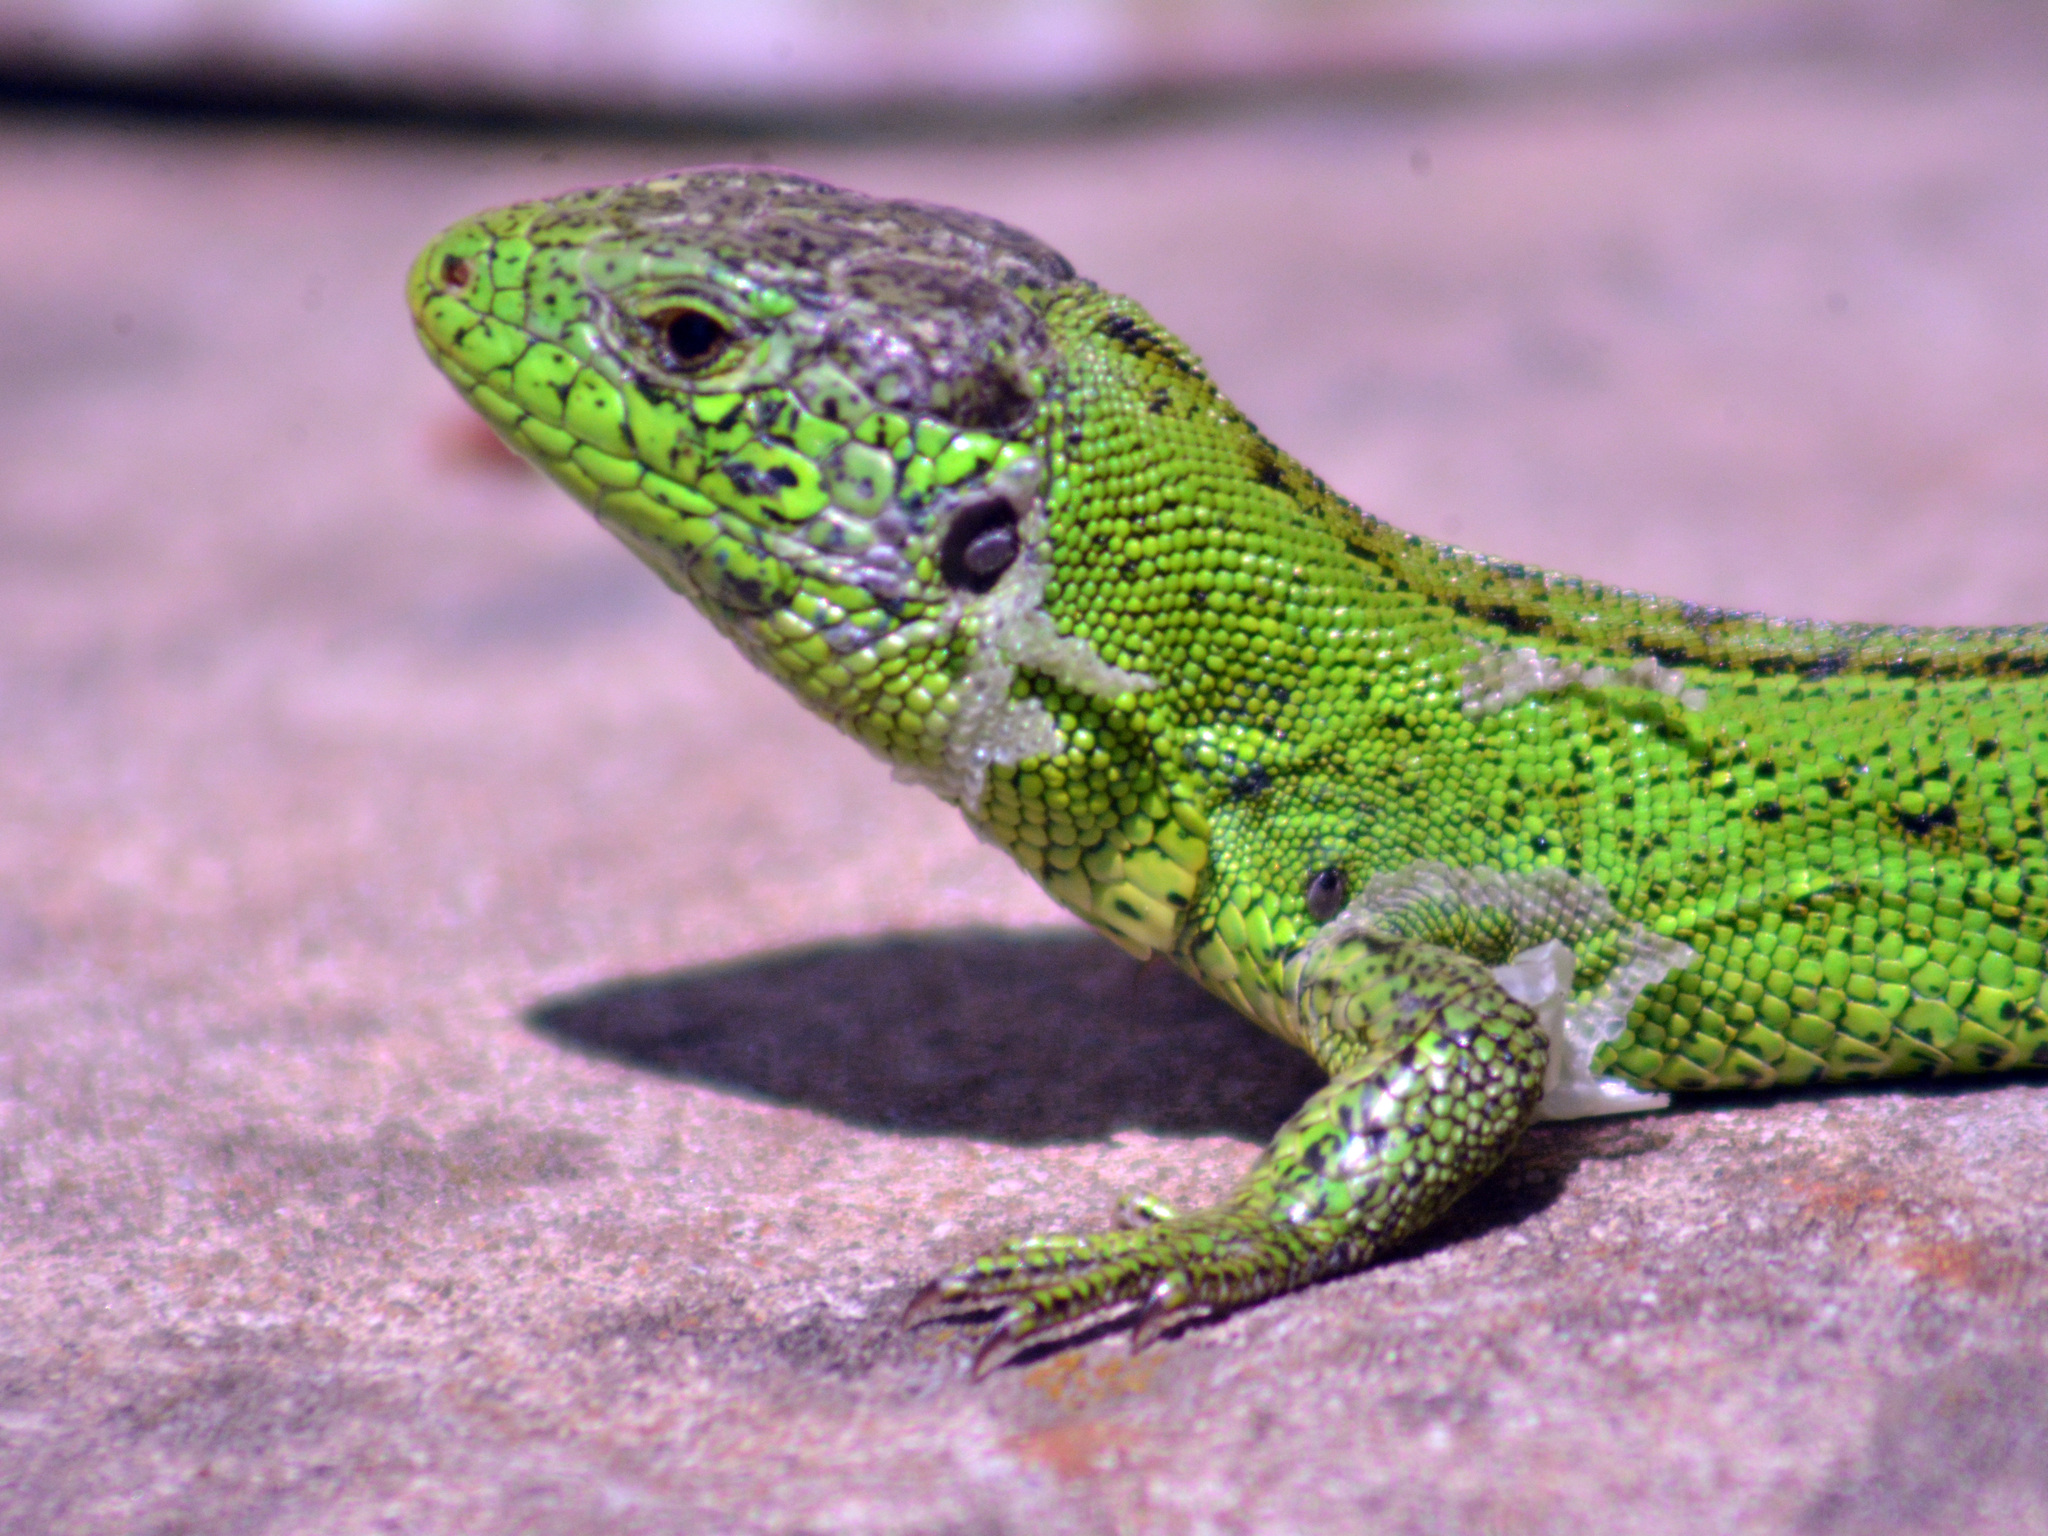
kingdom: Animalia
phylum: Chordata
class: Squamata
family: Lacertidae
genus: Lacerta
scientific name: Lacerta agilis
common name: Sand lizard
